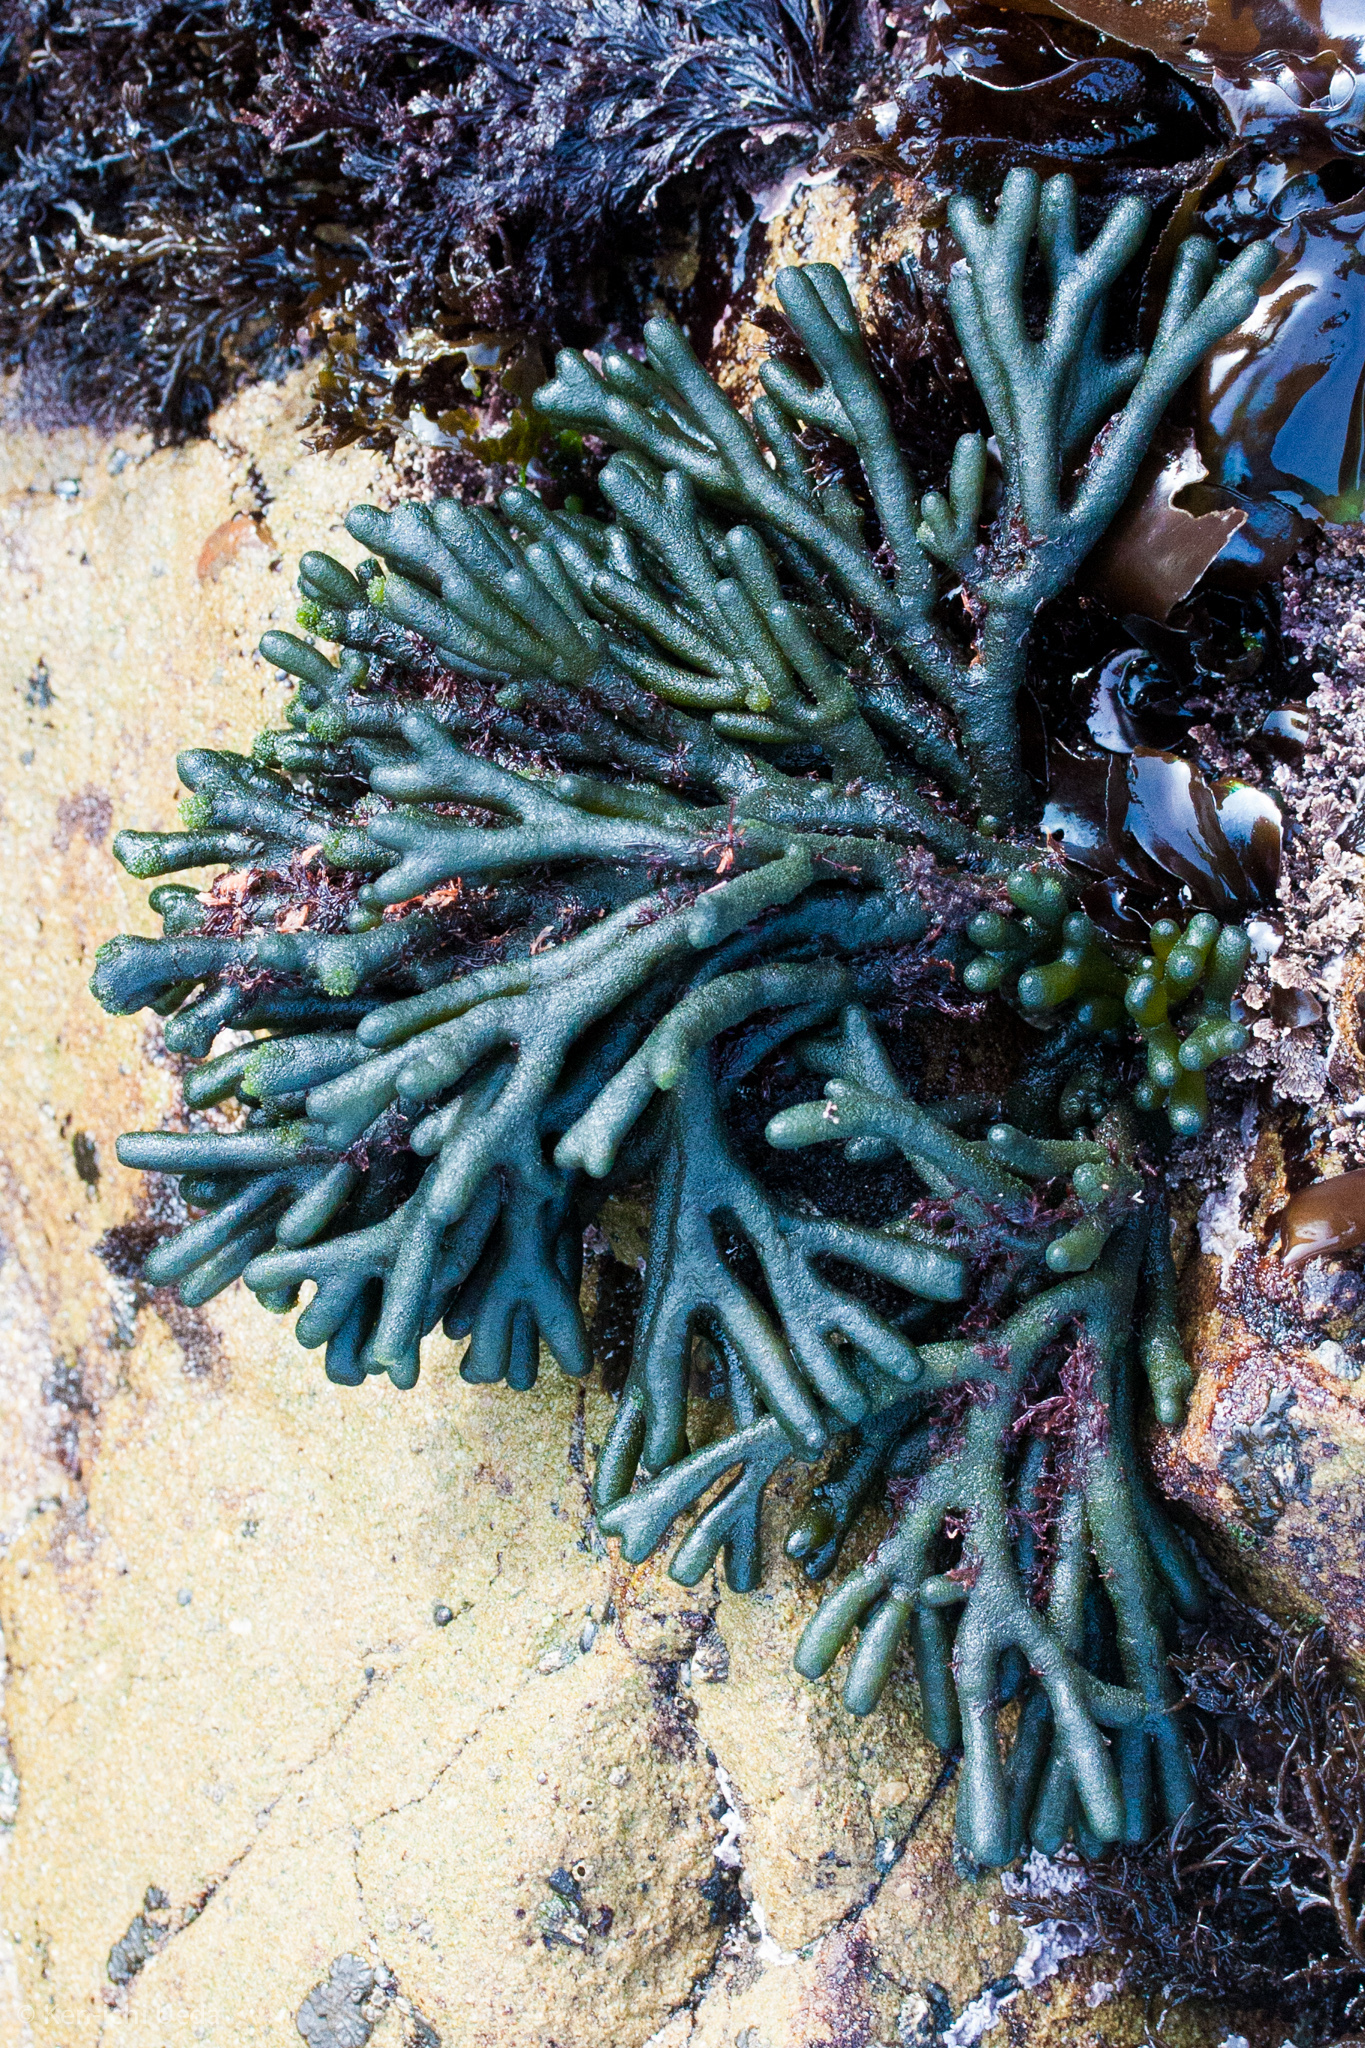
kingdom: Plantae
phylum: Chlorophyta
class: Ulvophyceae
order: Bryopsidales
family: Codiaceae
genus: Codium
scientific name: Codium fragile
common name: Dead man's fingers
